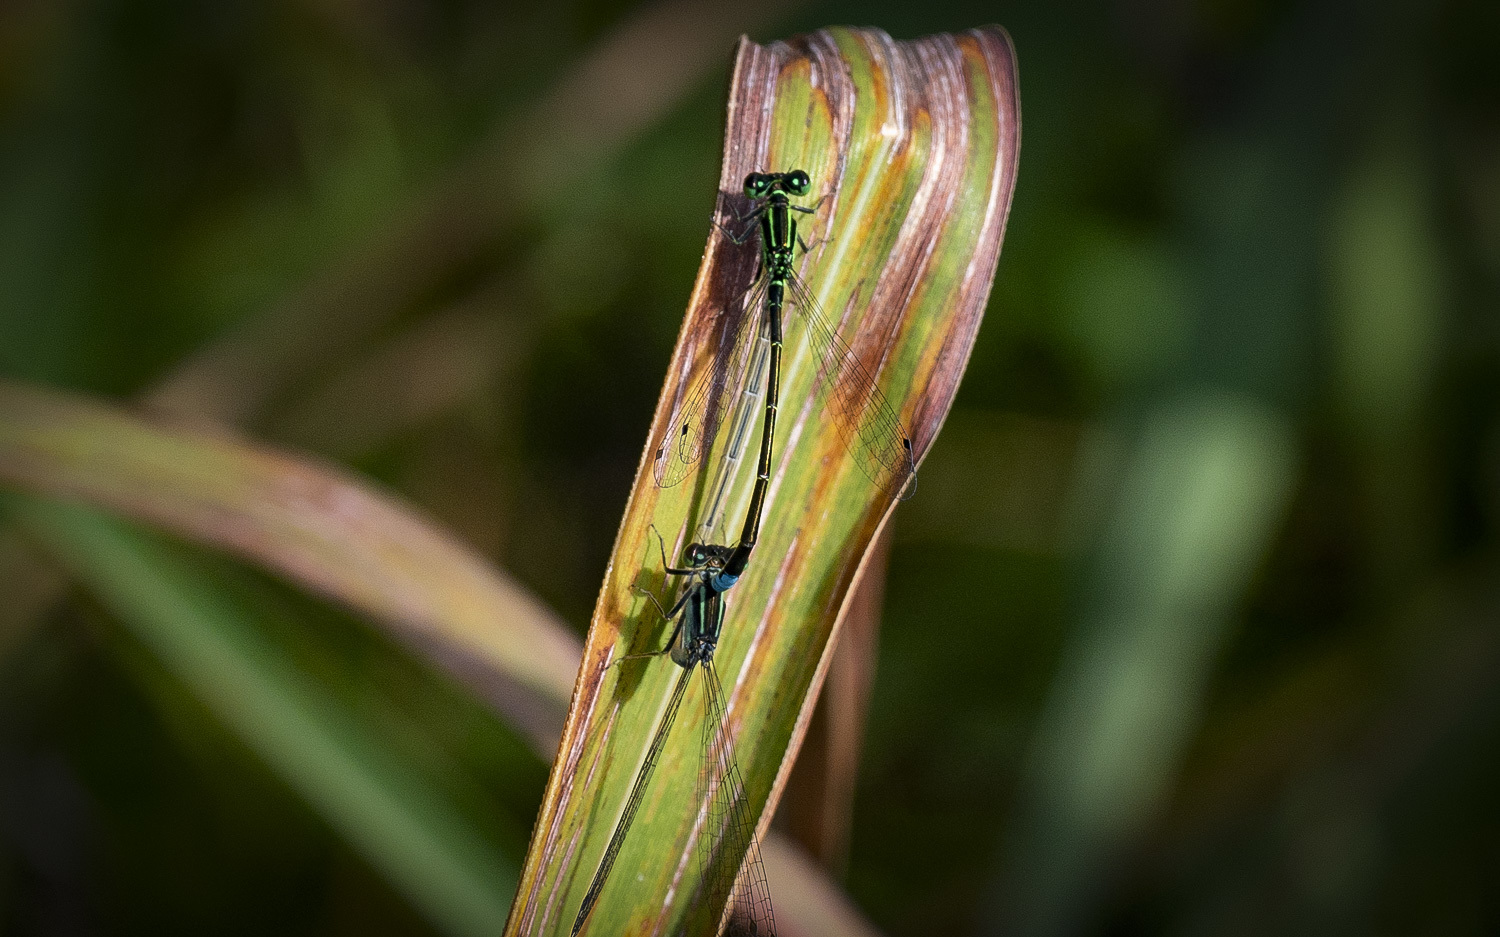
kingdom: Animalia
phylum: Arthropoda
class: Insecta
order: Odonata
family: Coenagrionidae
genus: Ischnura
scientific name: Ischnura verticalis
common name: Eastern forktail
